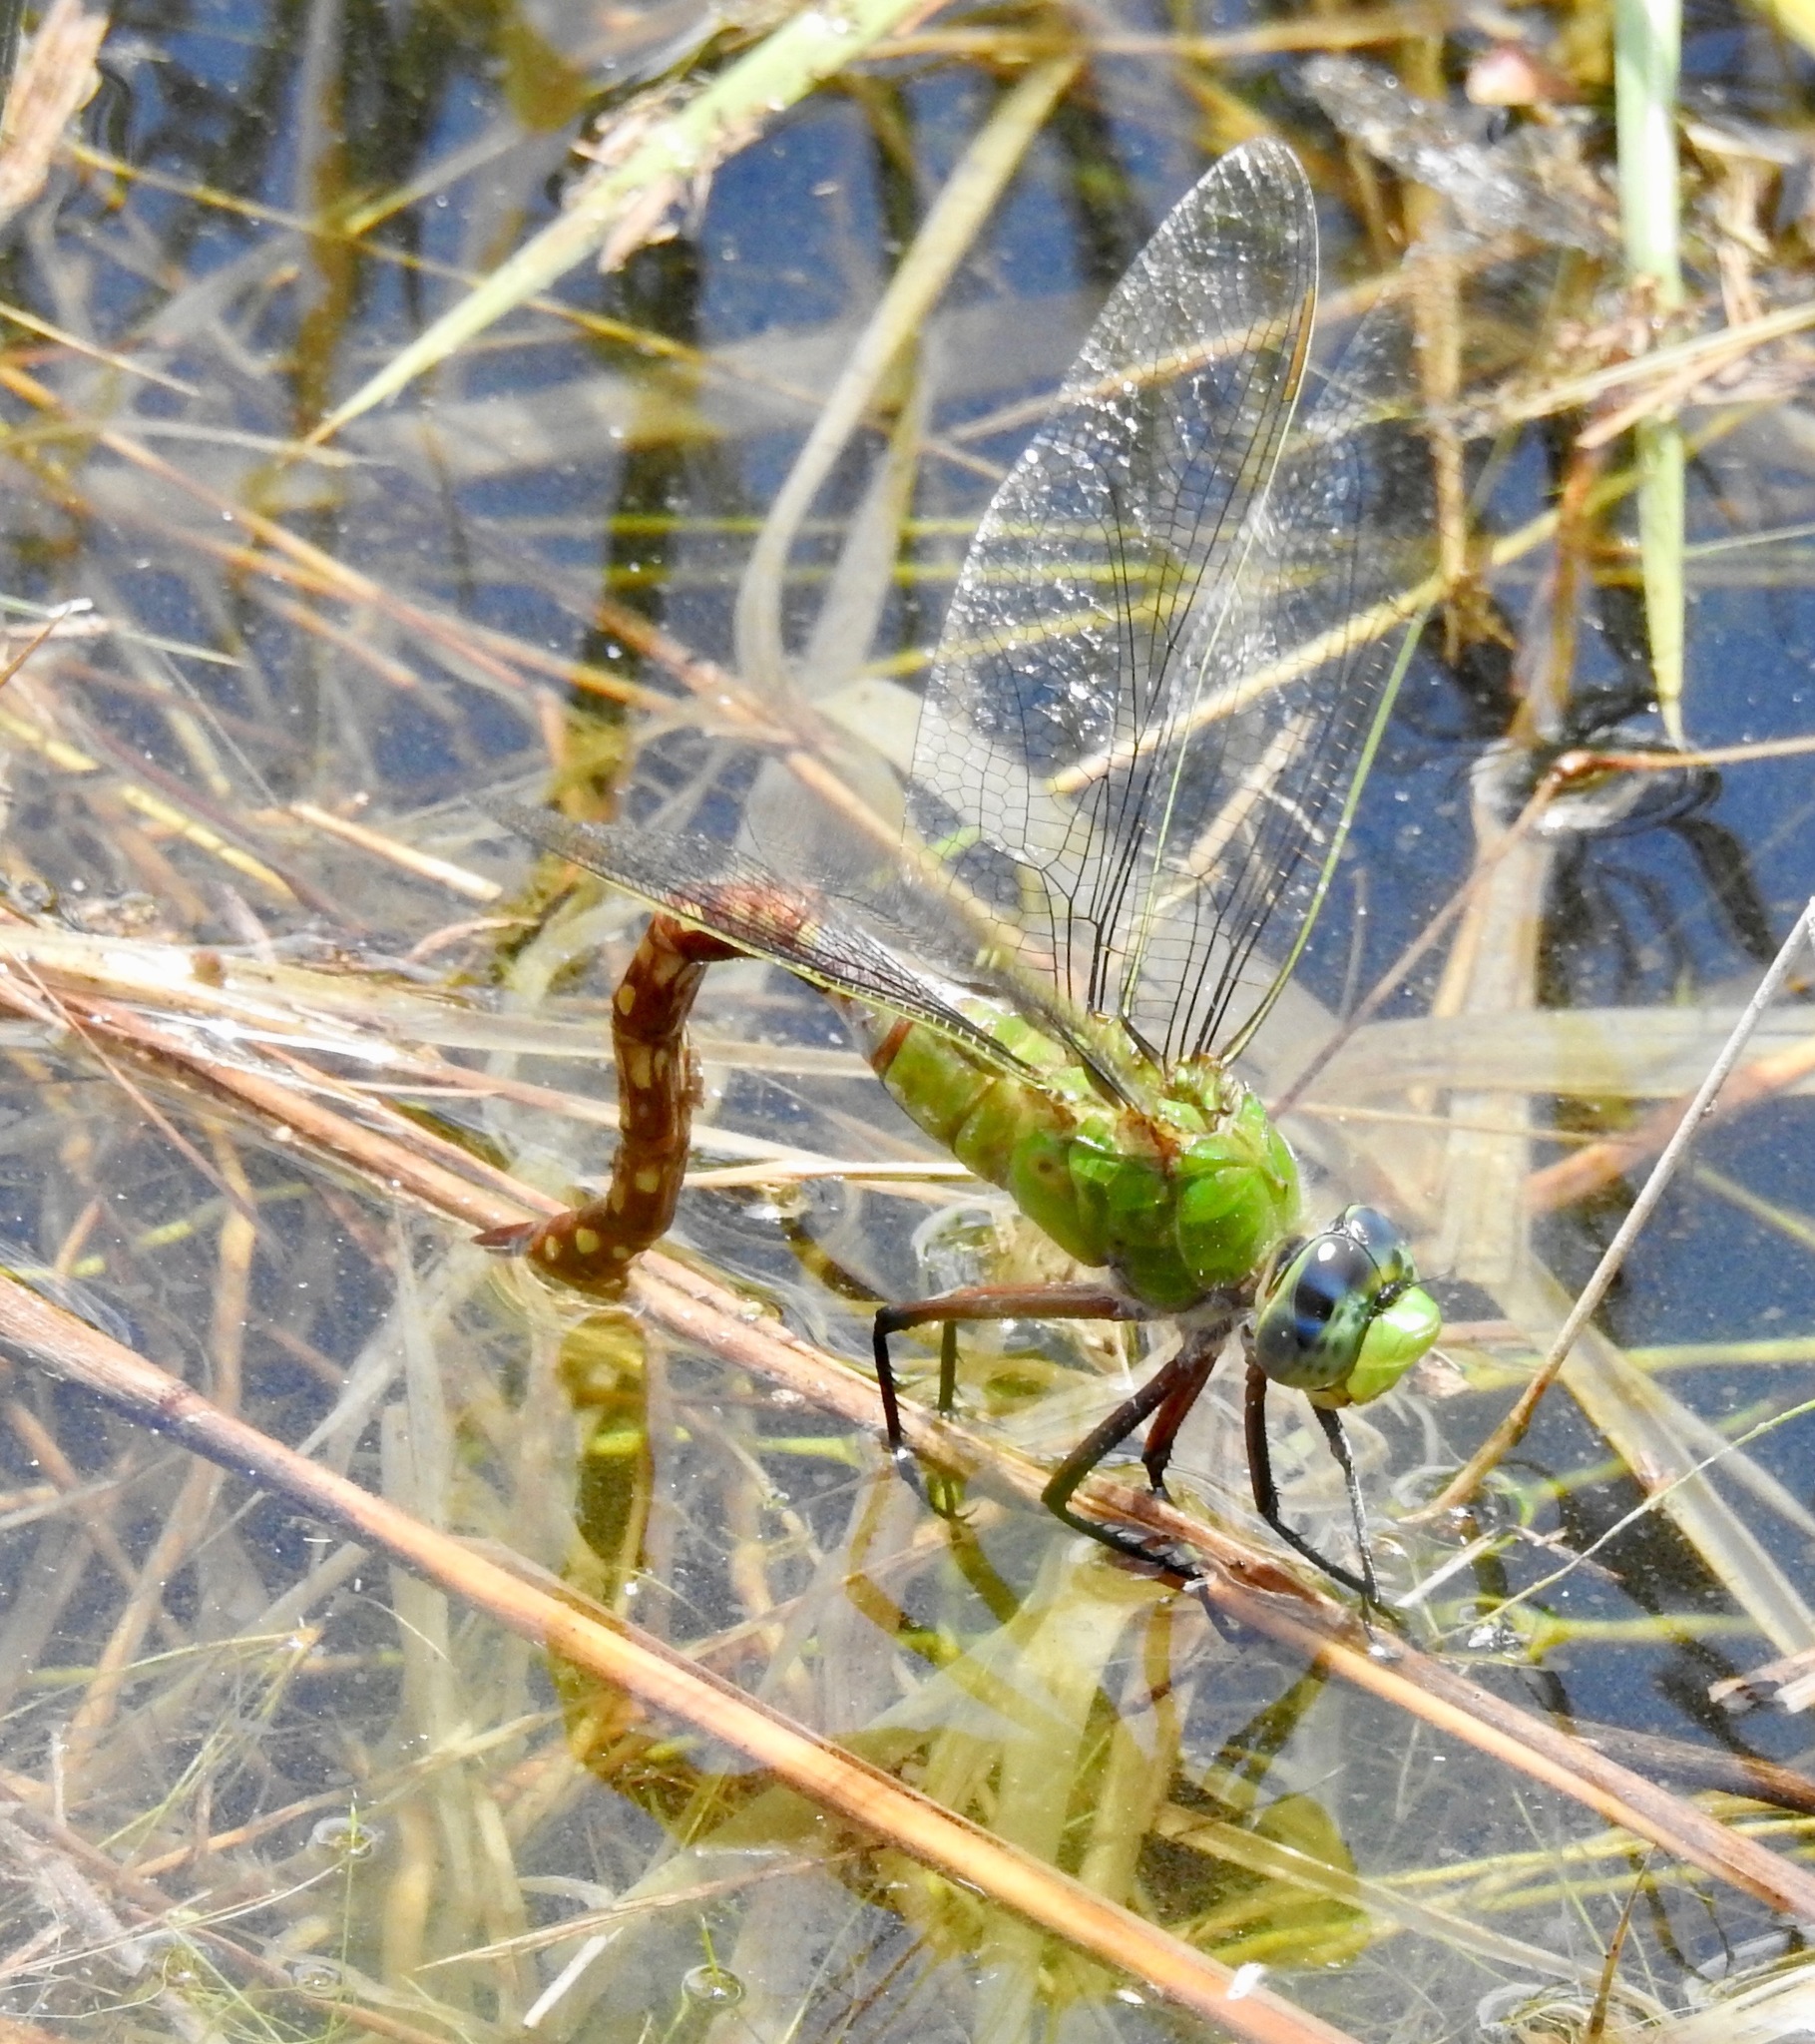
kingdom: Animalia
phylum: Arthropoda
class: Insecta
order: Odonata
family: Aeshnidae
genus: Anax
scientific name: Anax longipes
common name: Comet darner
